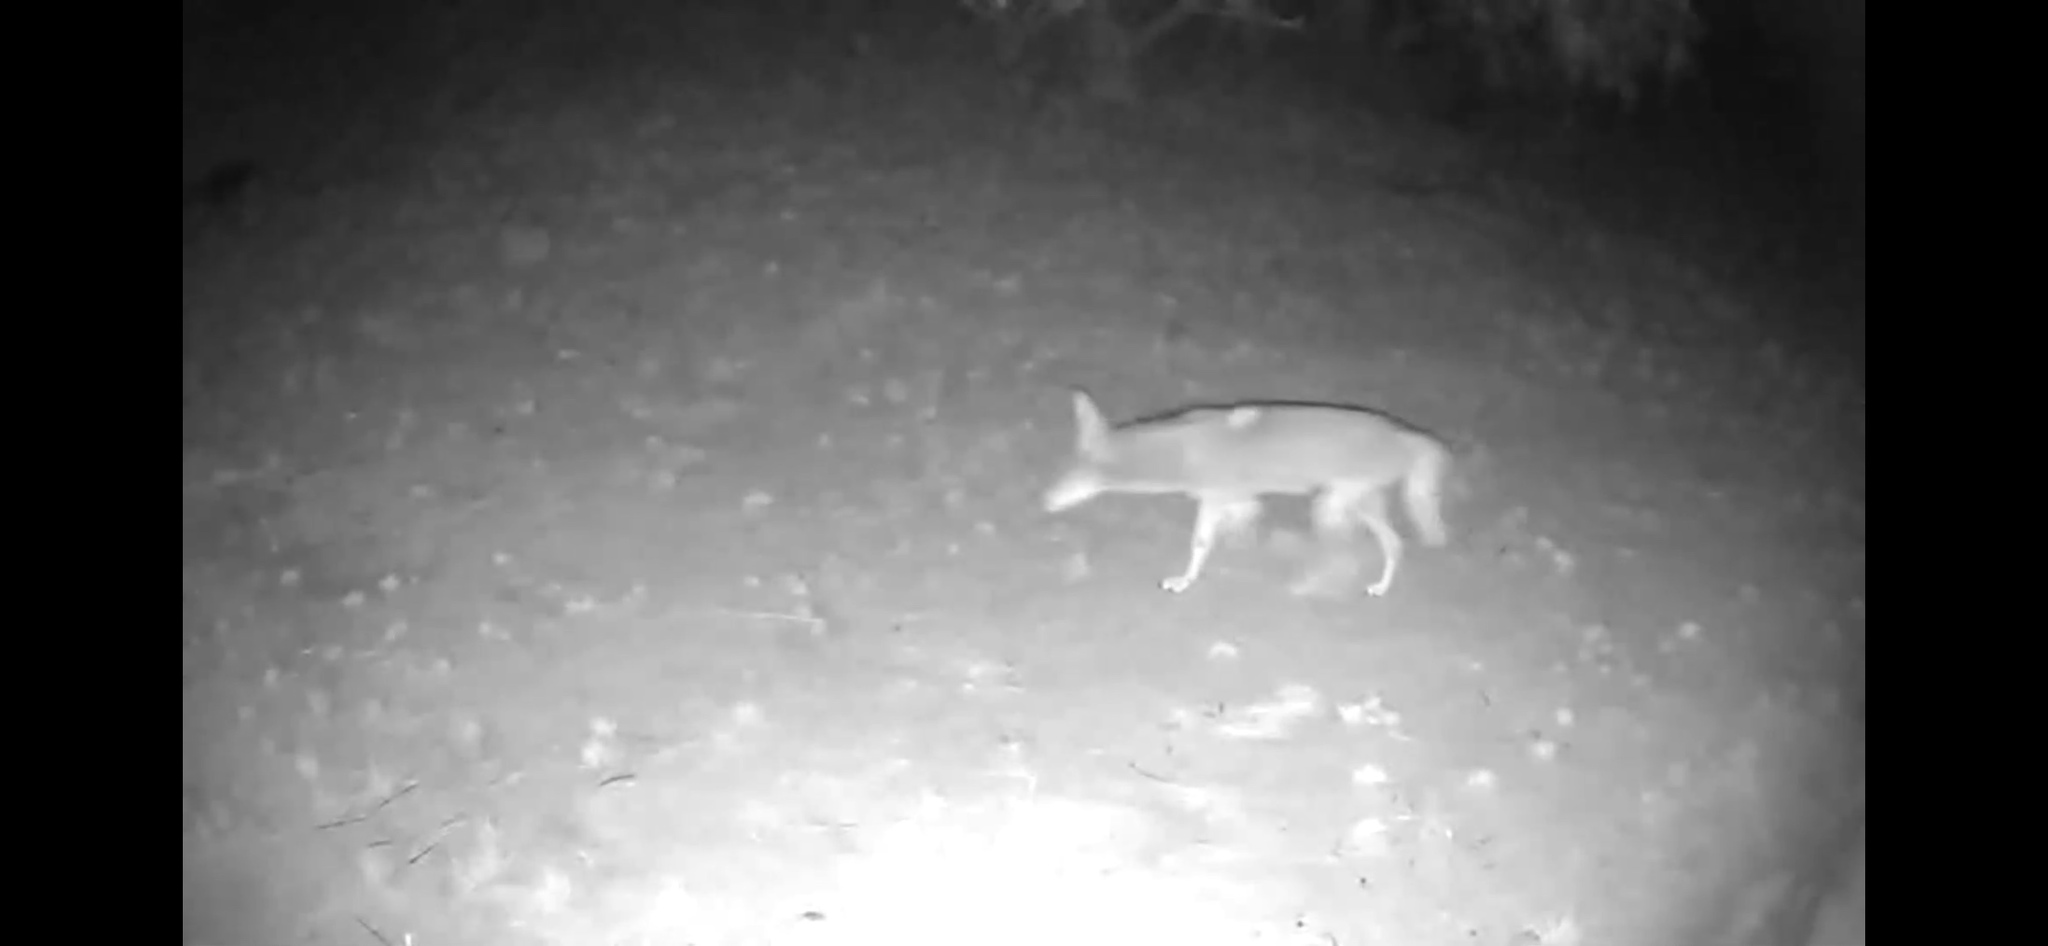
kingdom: Animalia
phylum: Chordata
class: Mammalia
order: Carnivora
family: Canidae
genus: Canis
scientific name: Canis latrans
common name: Coyote
